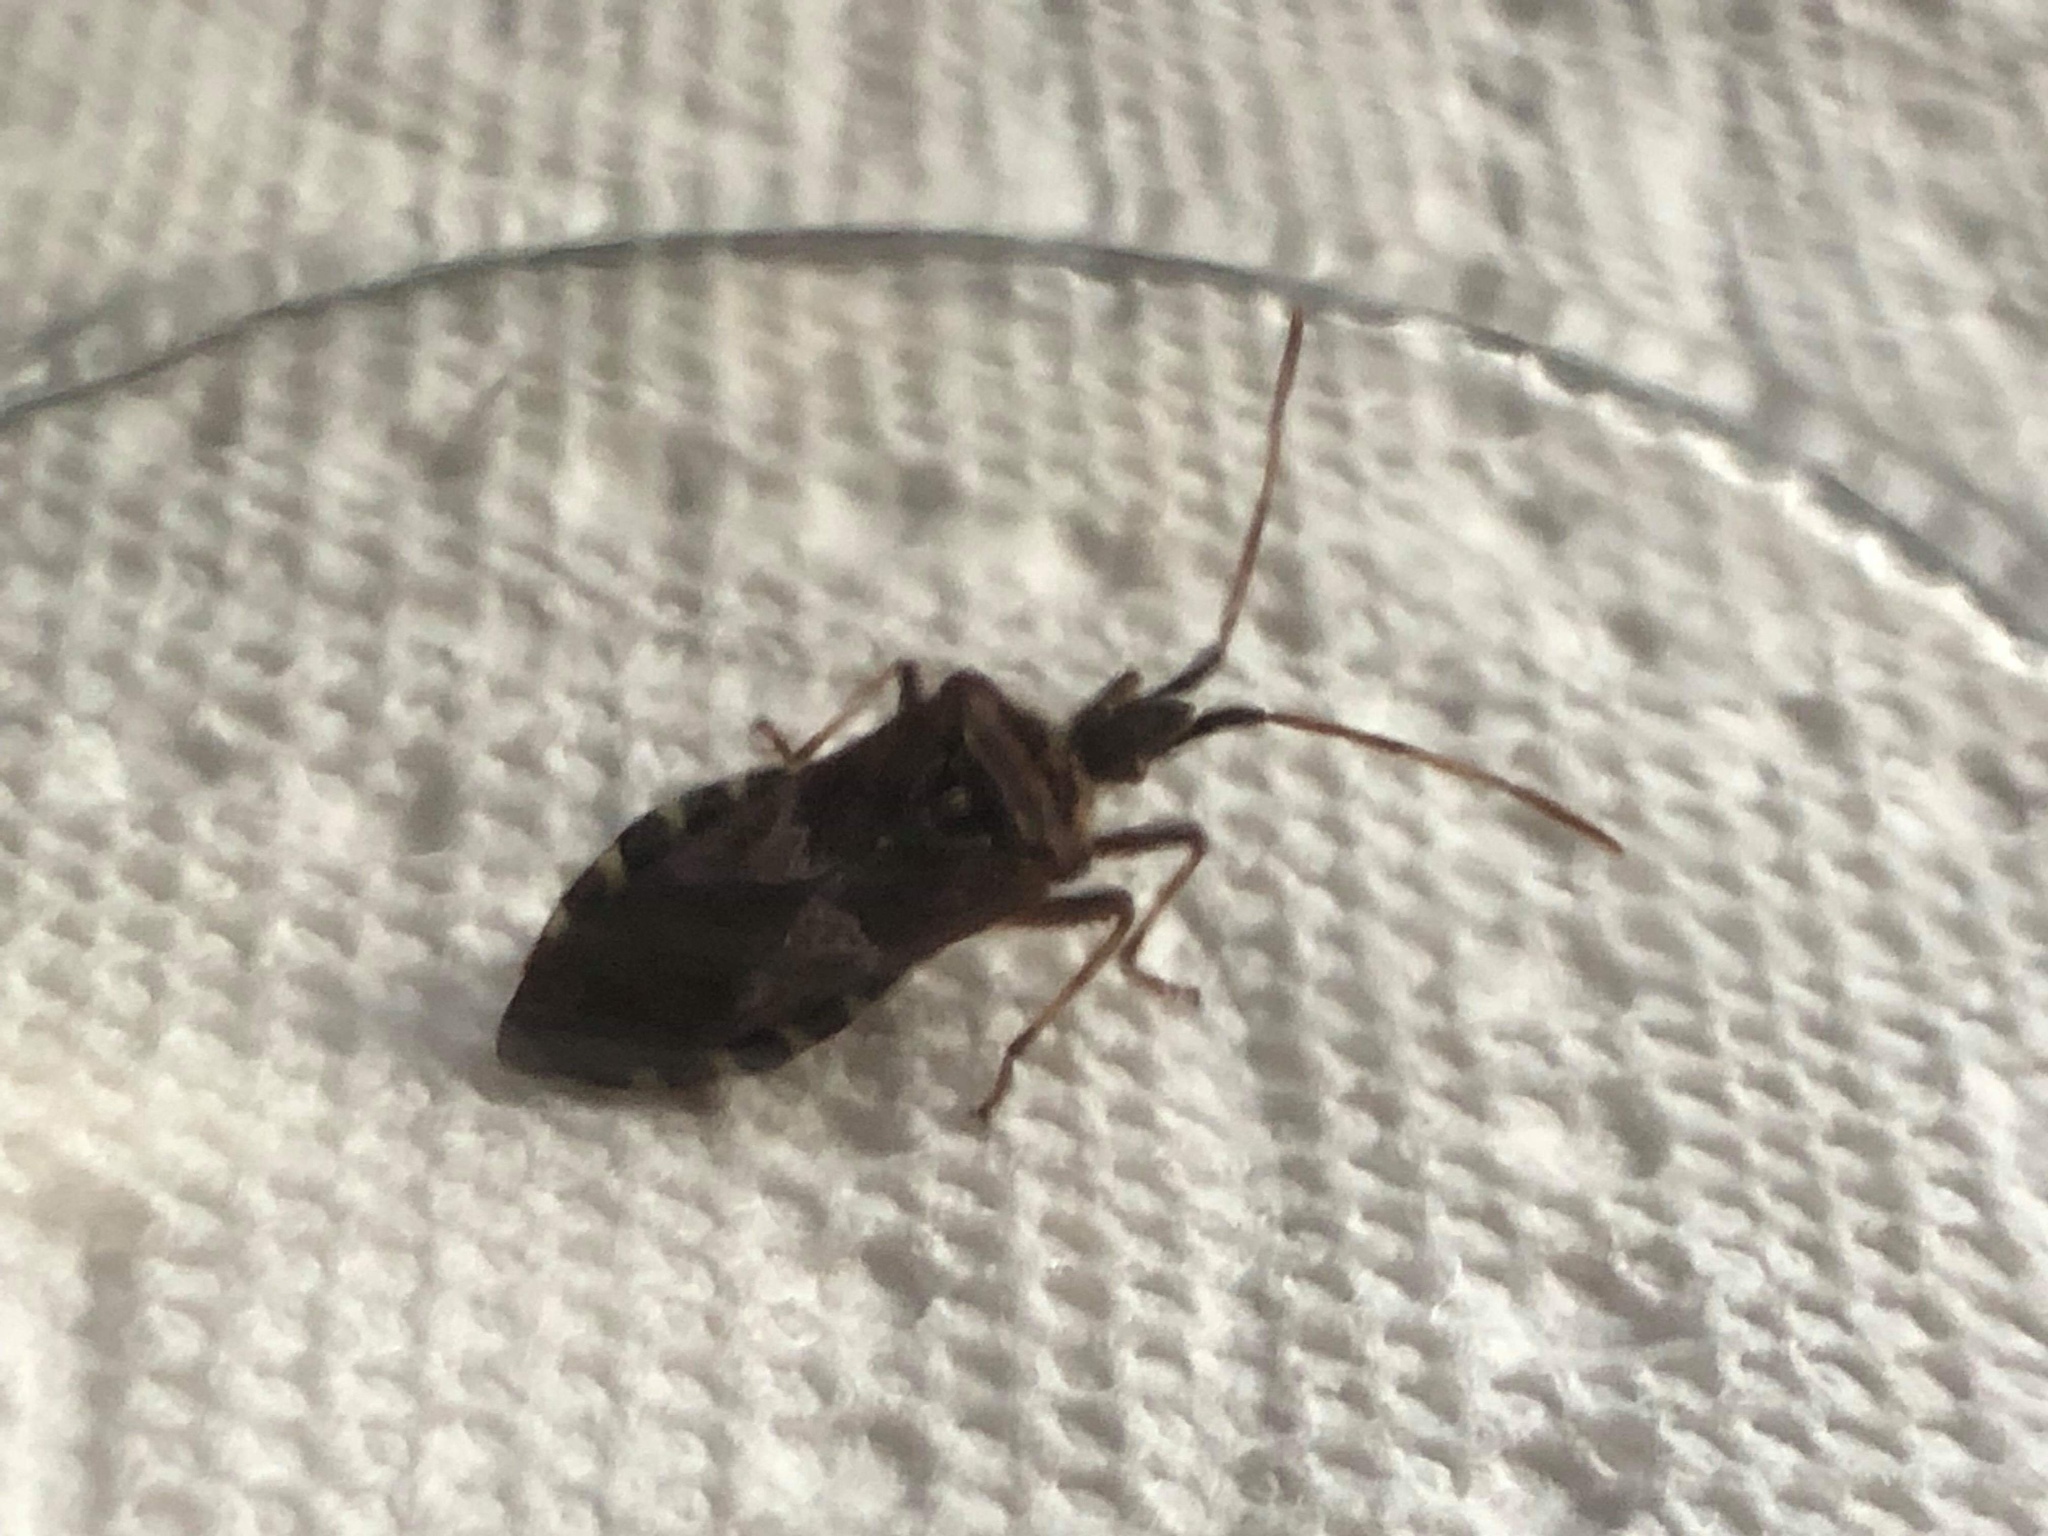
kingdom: Animalia
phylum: Arthropoda
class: Insecta
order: Hemiptera
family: Coreidae
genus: Leptoglossus
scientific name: Leptoglossus occidentalis
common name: Western conifer-seed bug
